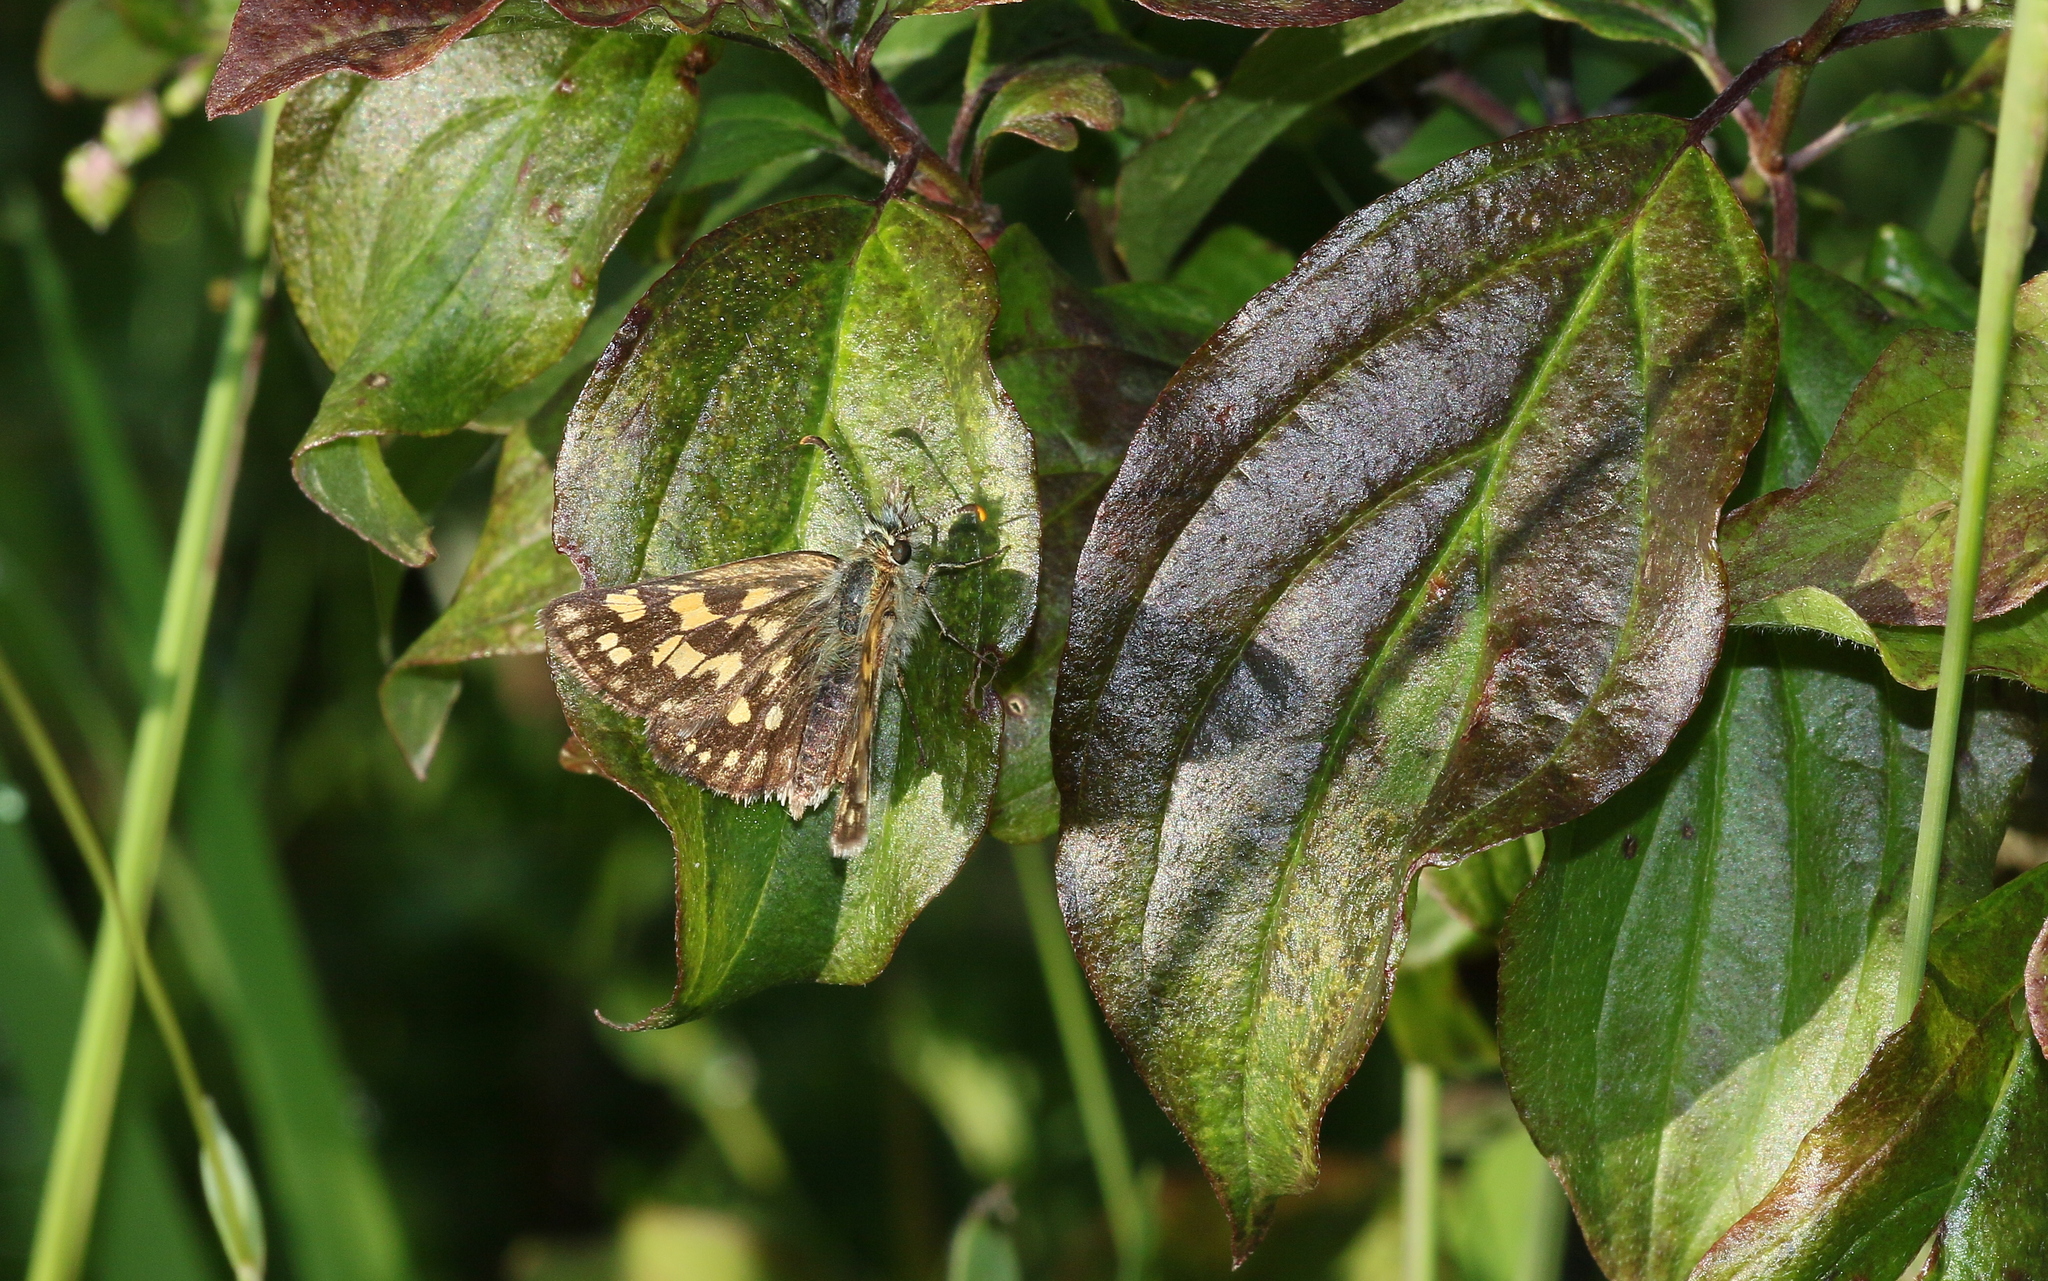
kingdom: Animalia
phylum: Arthropoda
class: Insecta
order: Lepidoptera
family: Hesperiidae
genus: Carterocephalus
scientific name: Carterocephalus palaemon
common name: Chequered skipper
